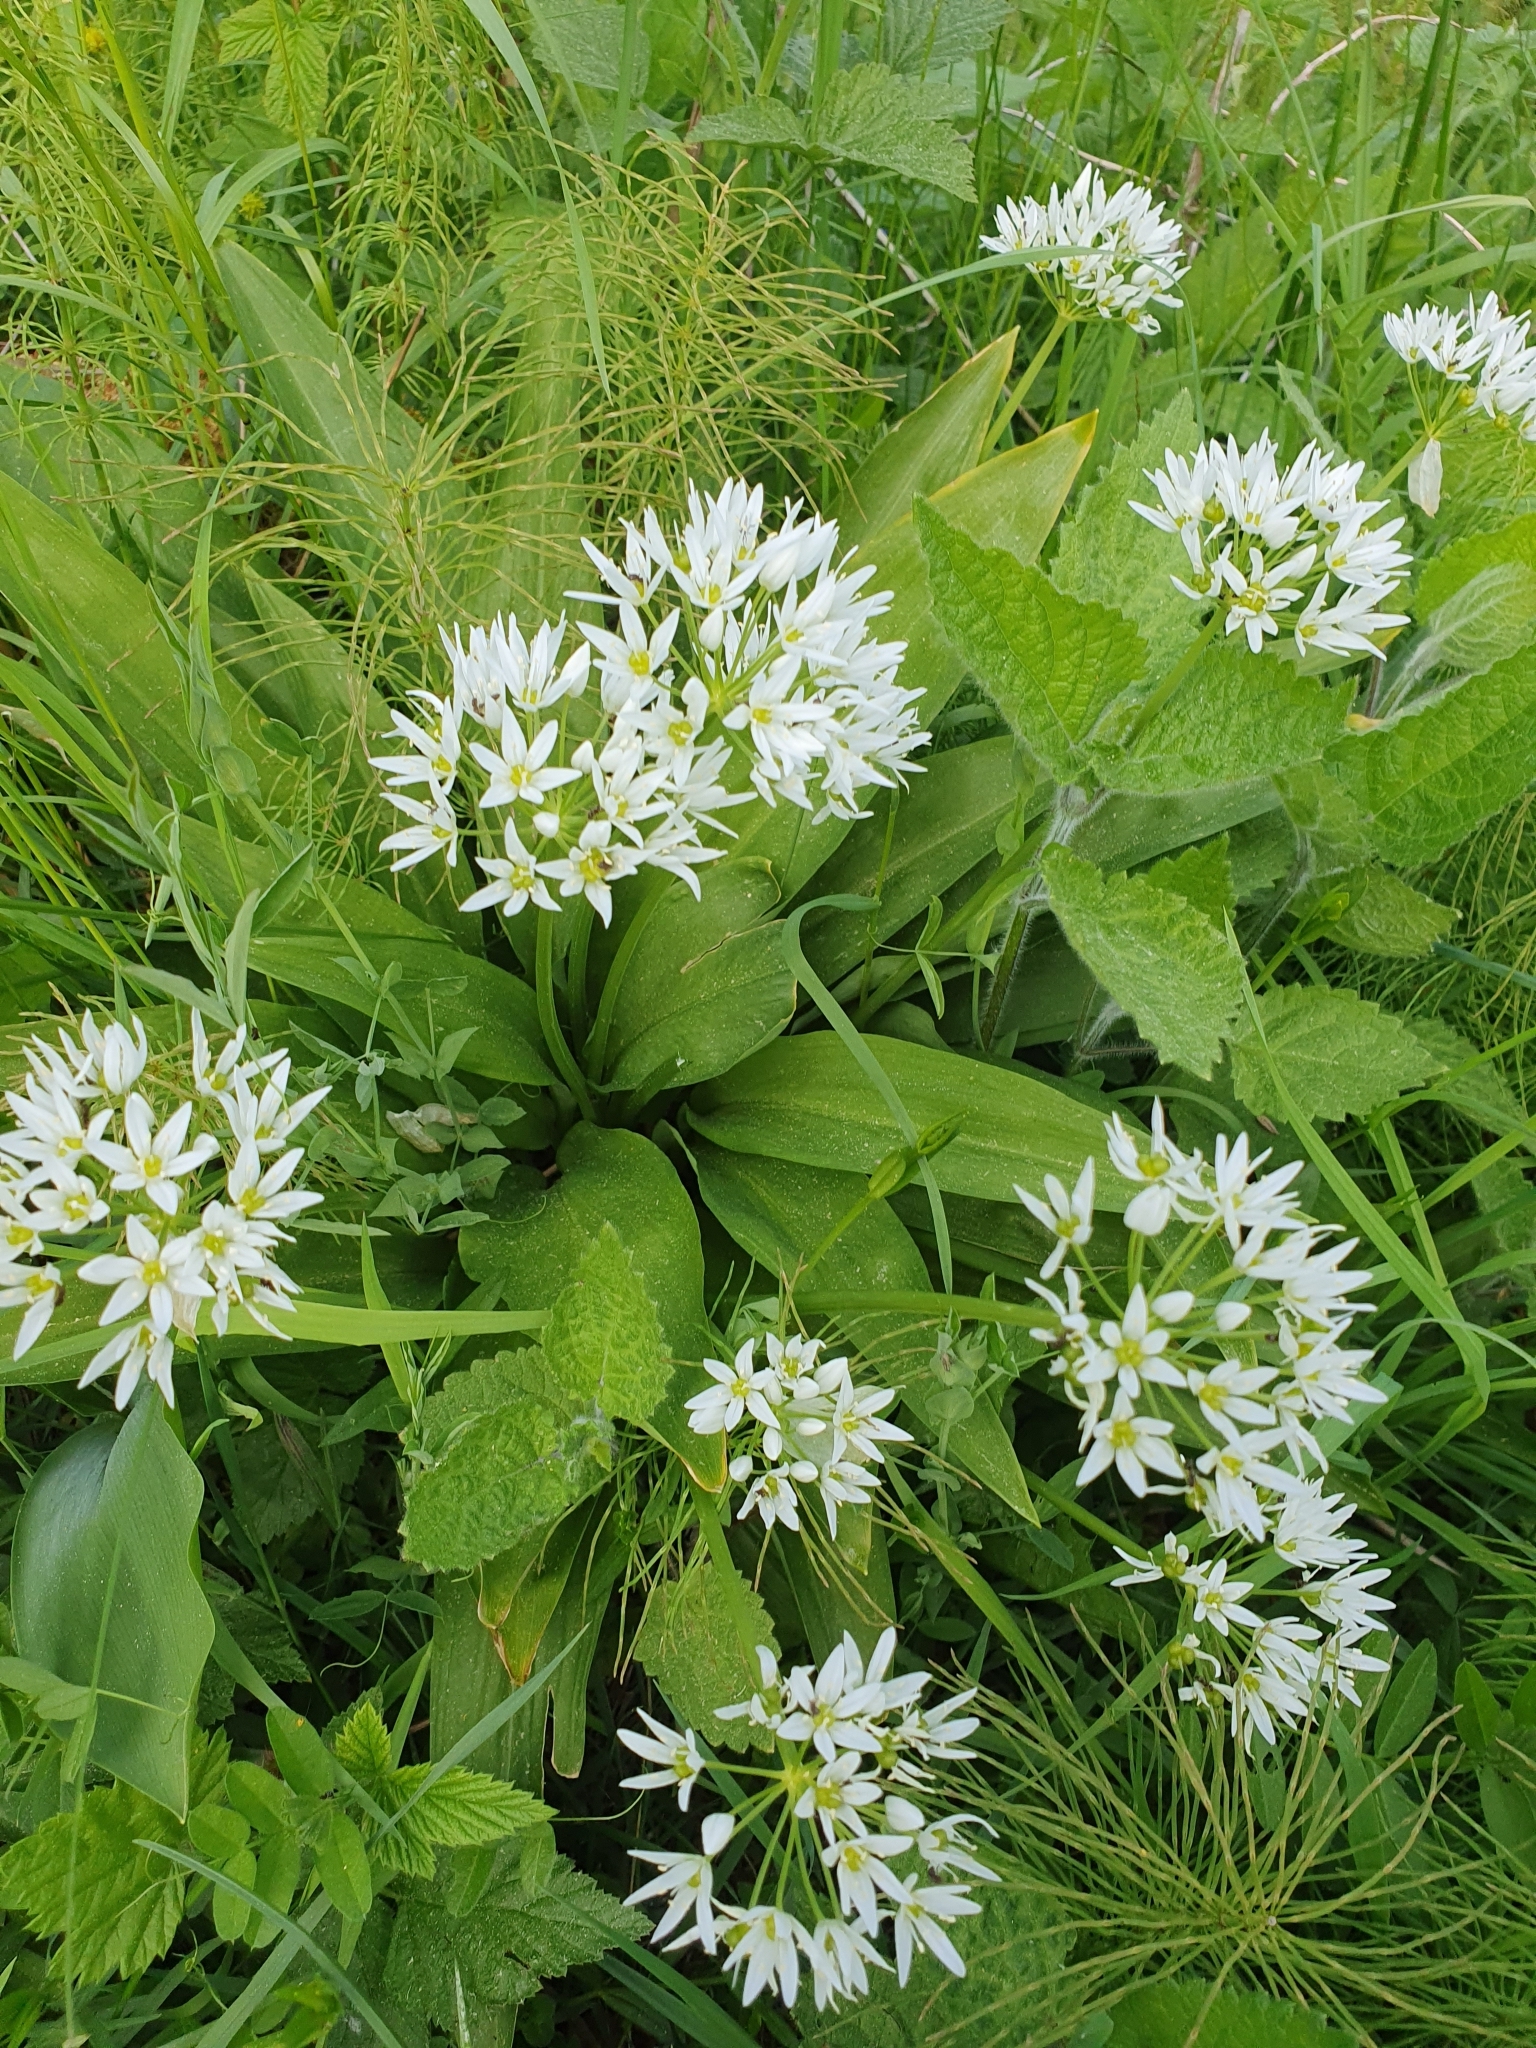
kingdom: Plantae
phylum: Tracheophyta
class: Liliopsida
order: Asparagales
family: Amaryllidaceae
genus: Allium
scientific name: Allium ursinum
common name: Ramsons
